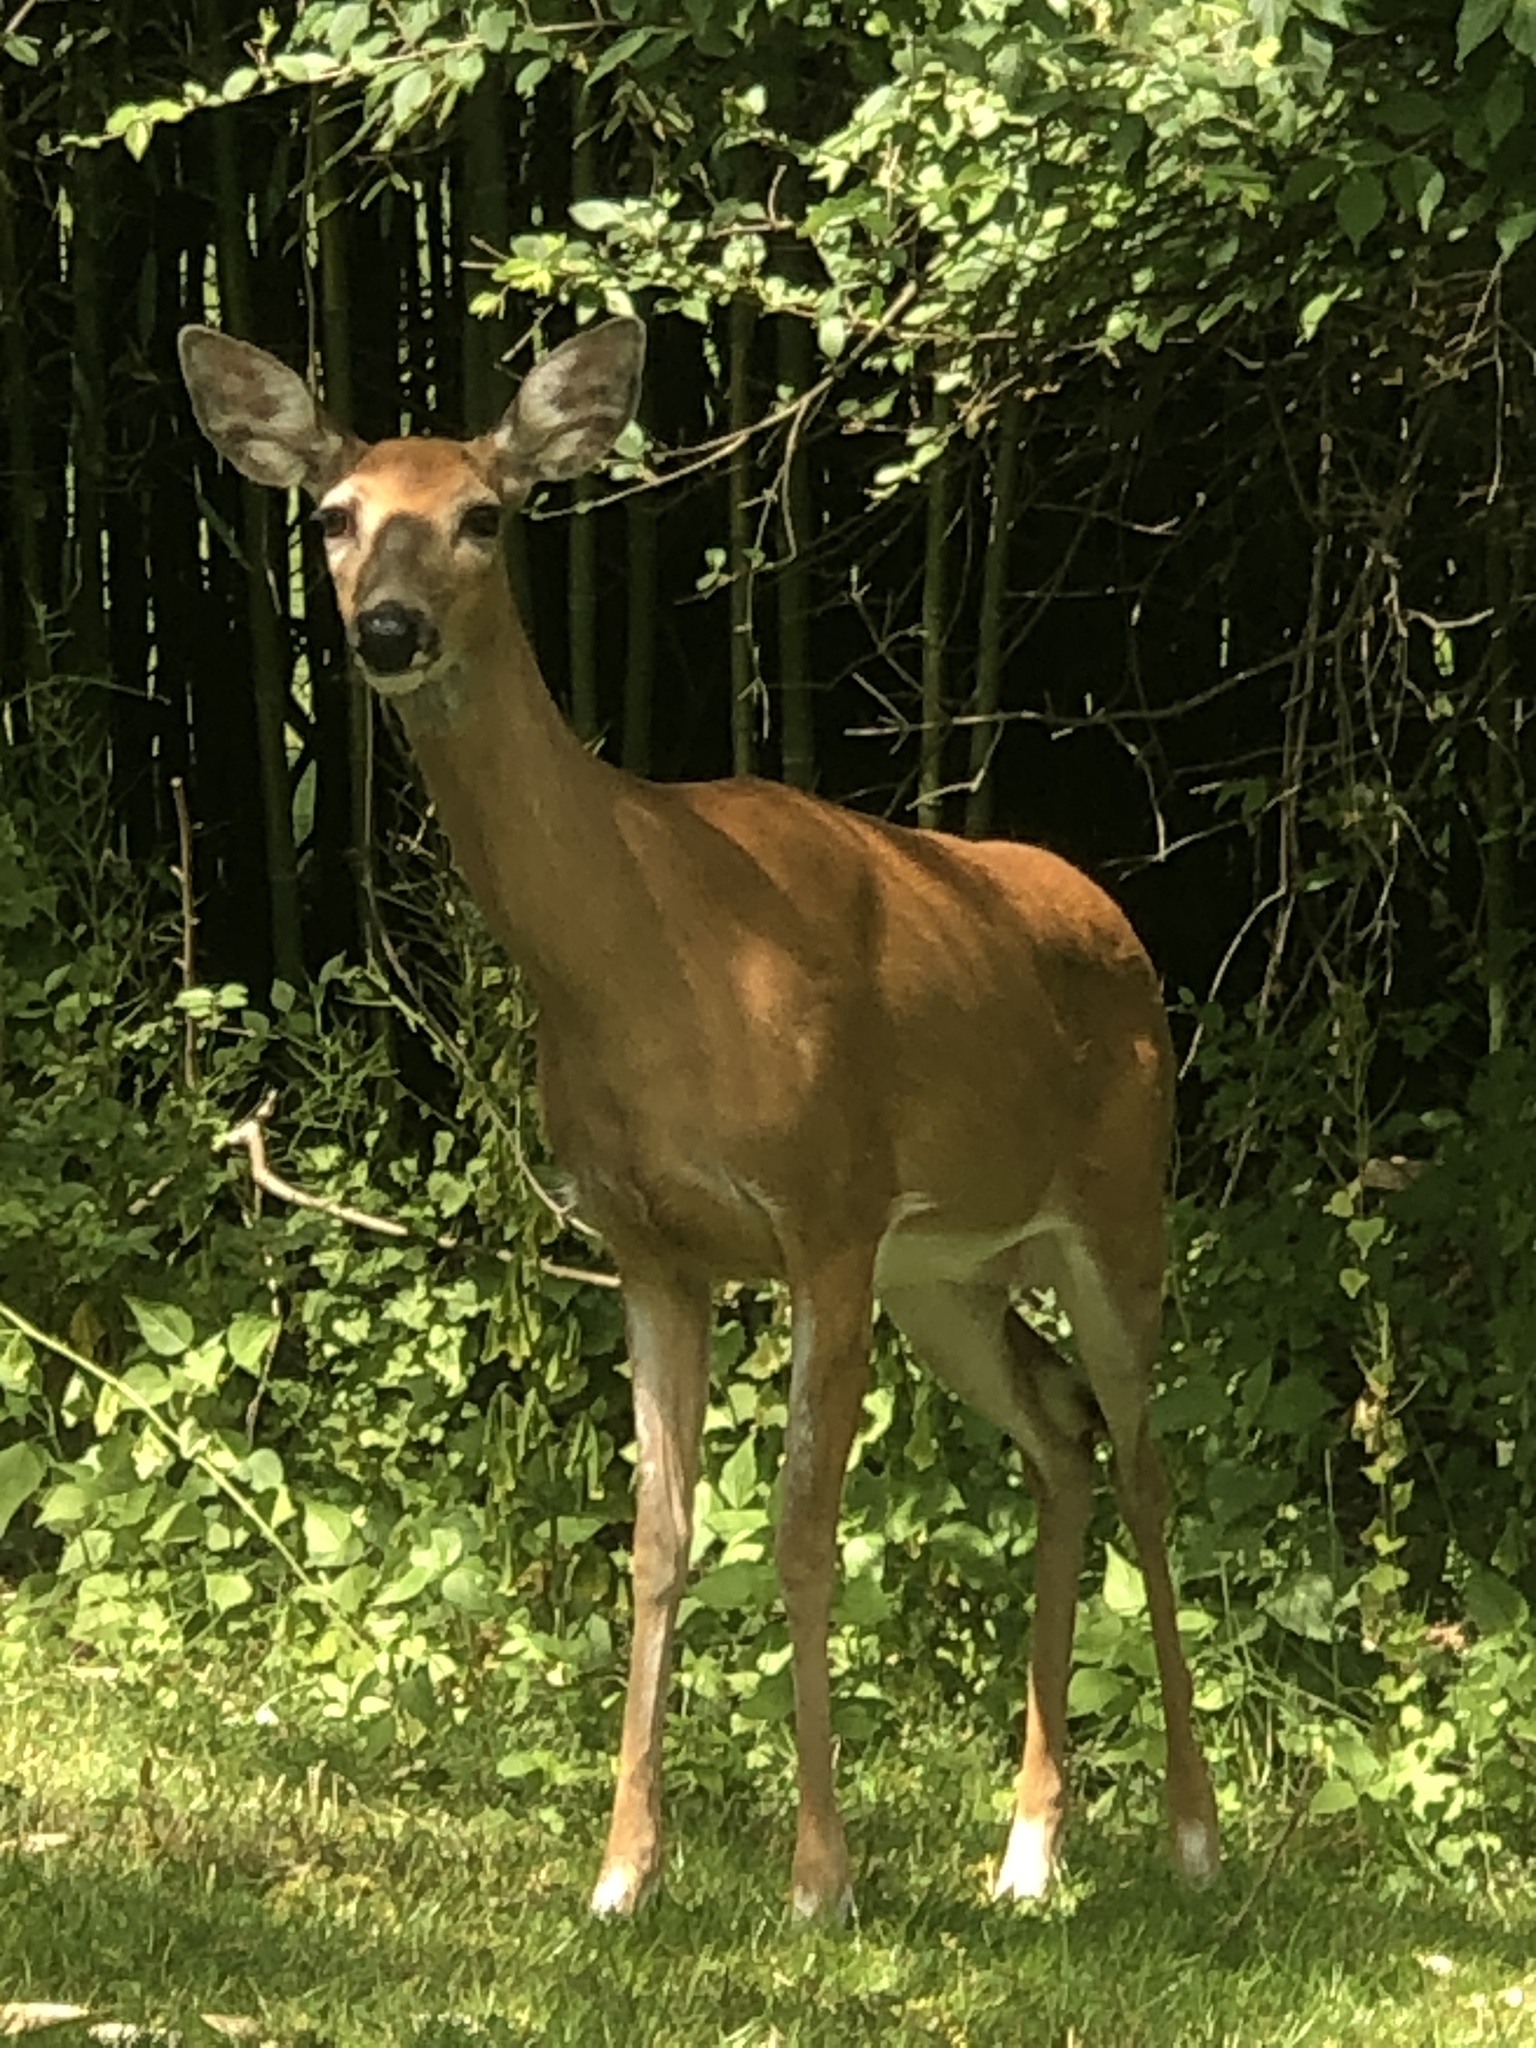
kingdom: Animalia
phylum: Chordata
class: Mammalia
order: Artiodactyla
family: Cervidae
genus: Odocoileus
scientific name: Odocoileus virginianus
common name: White-tailed deer
